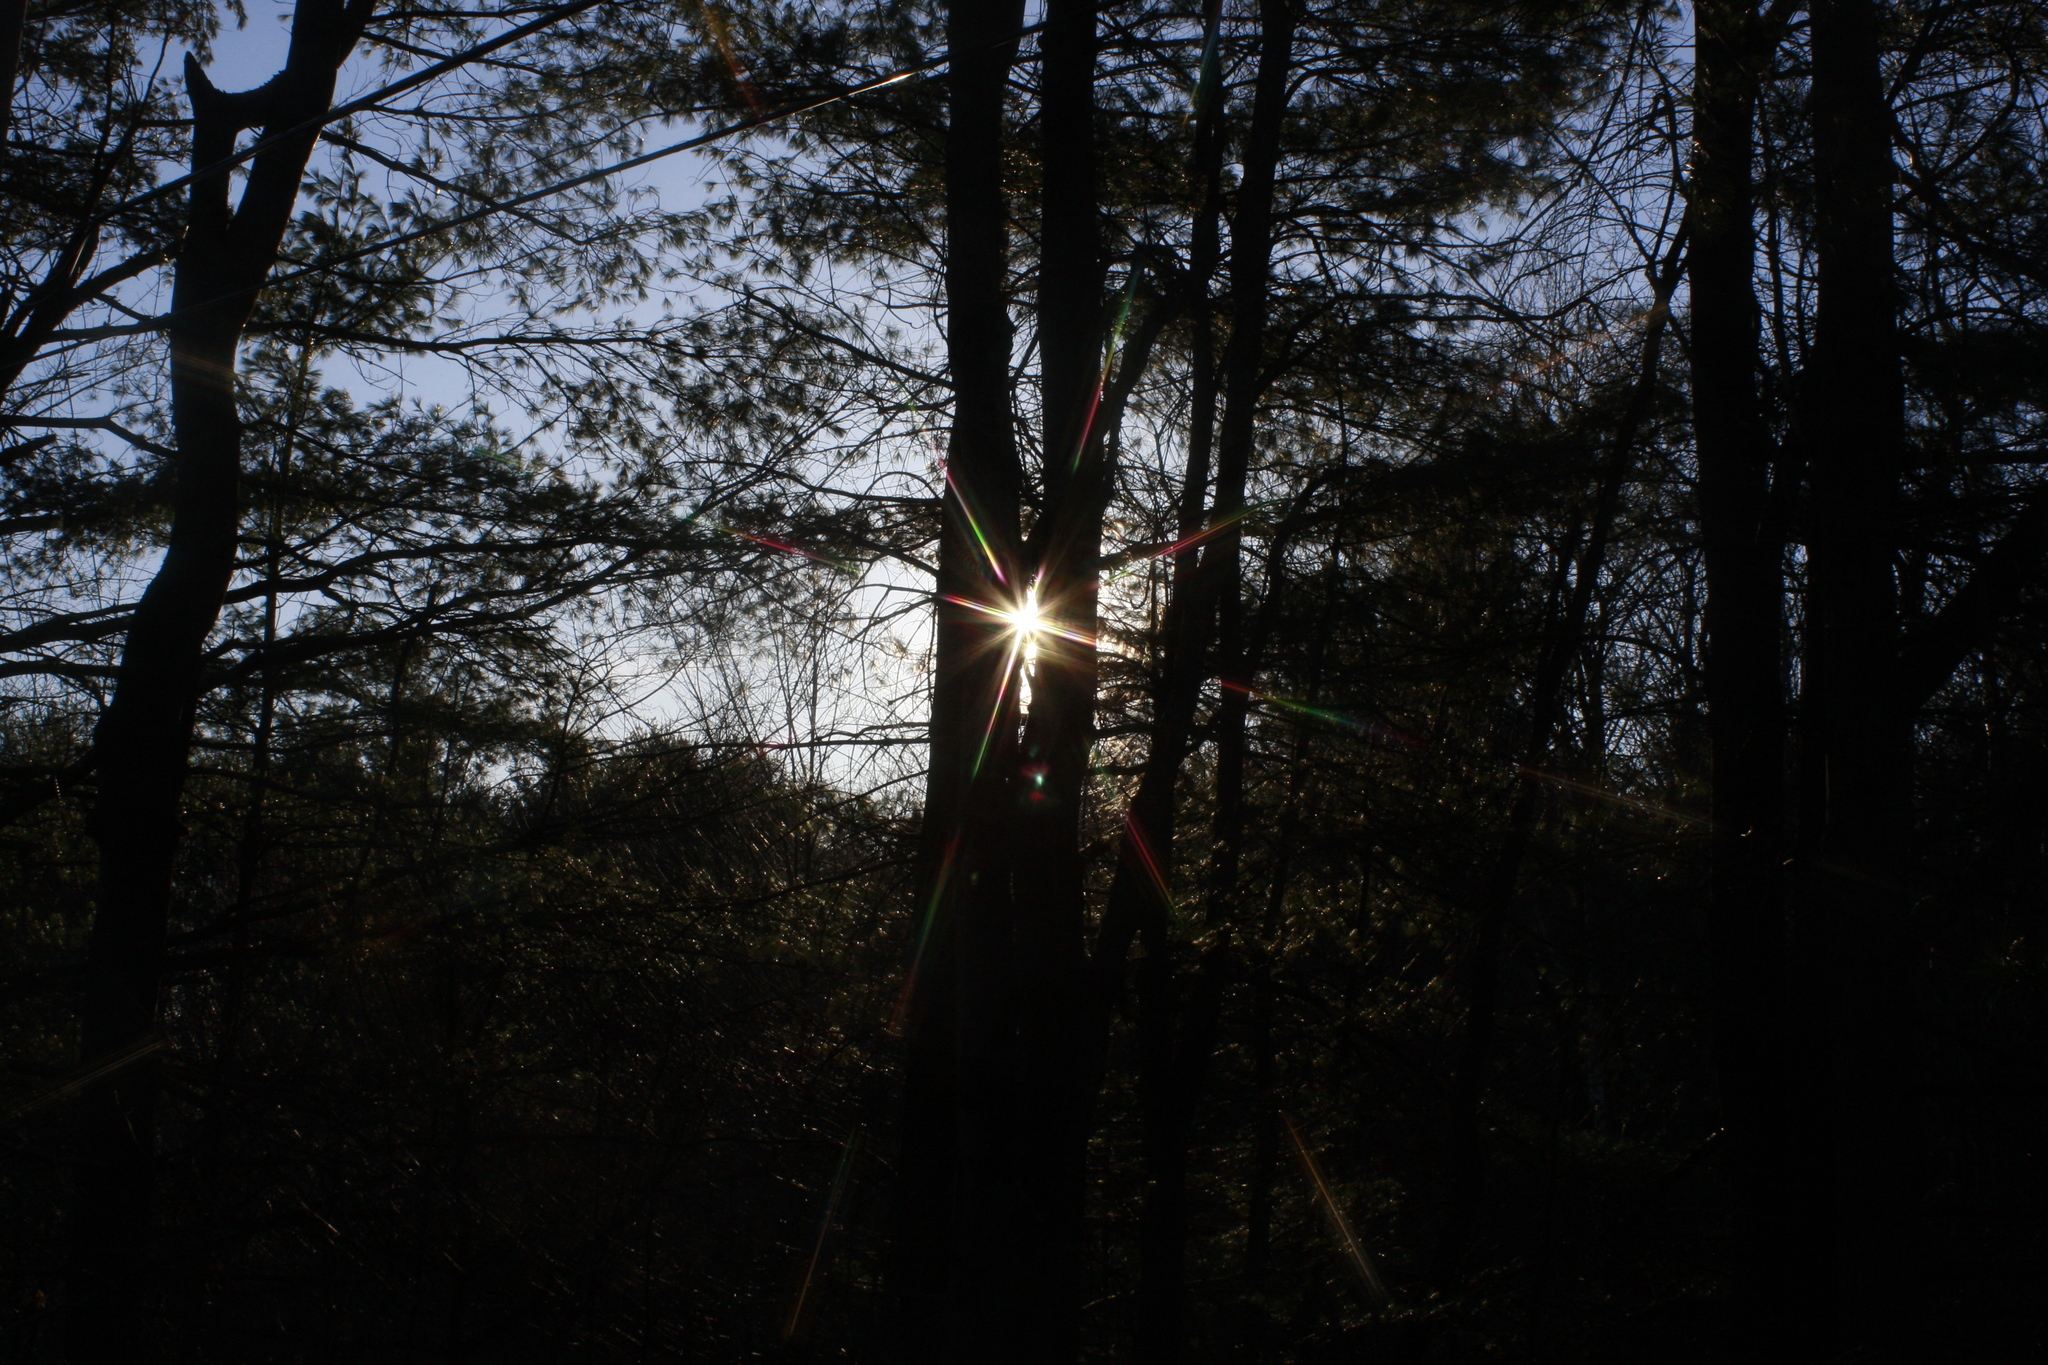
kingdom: Plantae
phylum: Tracheophyta
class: Pinopsida
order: Pinales
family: Pinaceae
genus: Pinus
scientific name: Pinus strobus
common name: Weymouth pine
